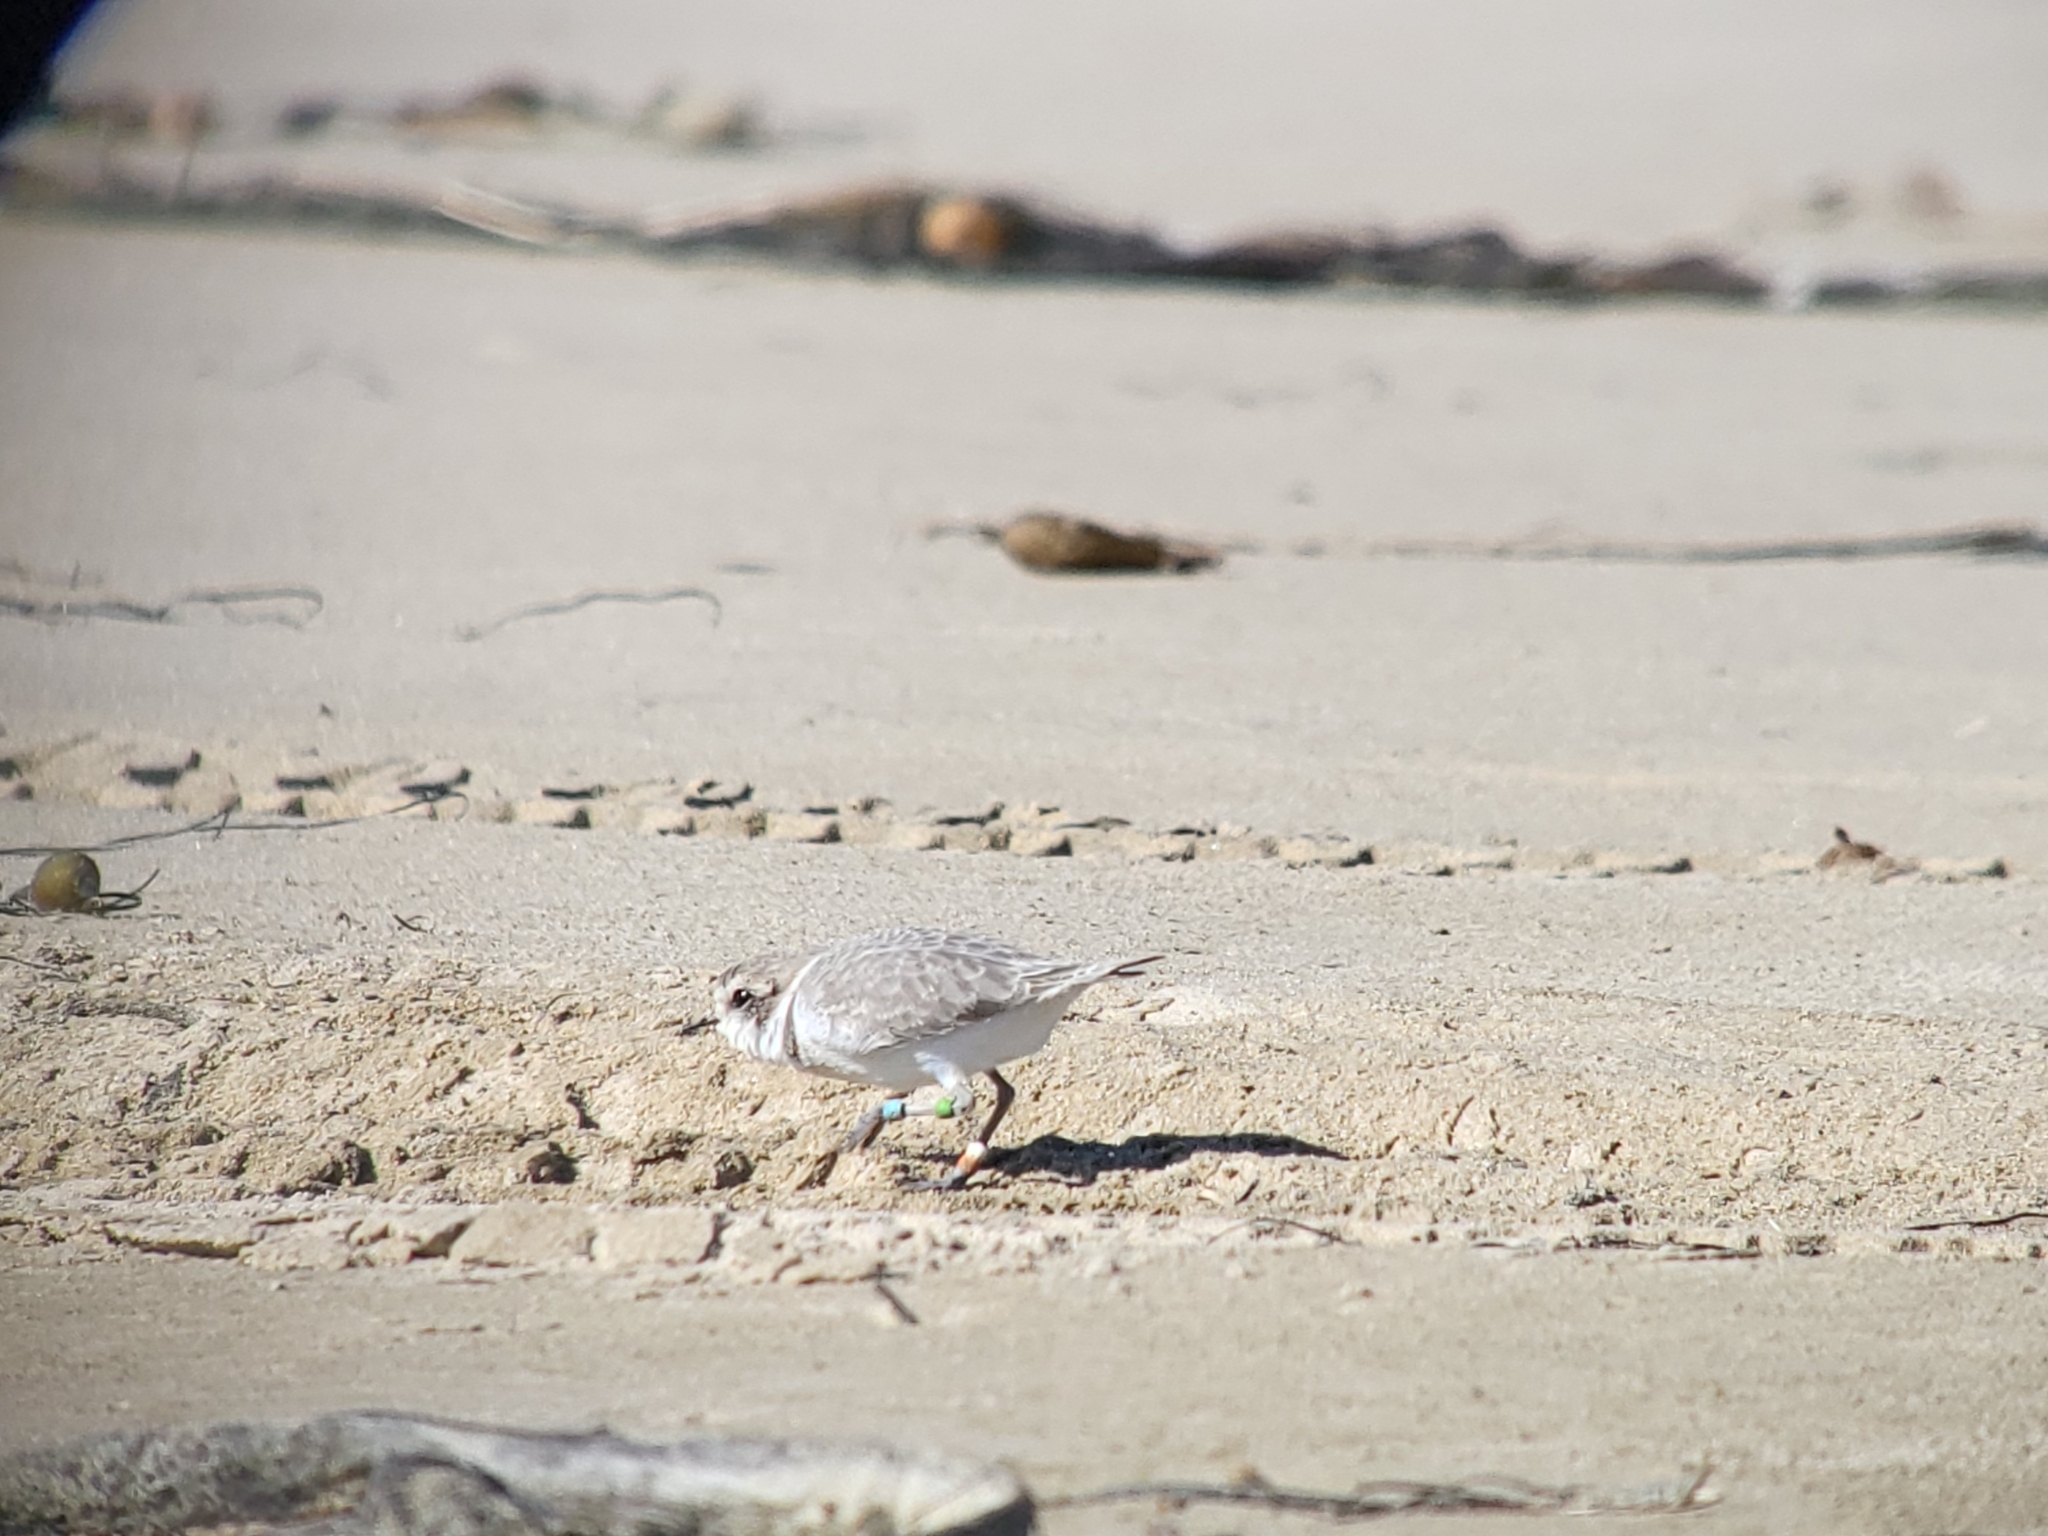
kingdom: Animalia
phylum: Chordata
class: Aves
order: Charadriiformes
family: Charadriidae
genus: Anarhynchus
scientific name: Anarhynchus
